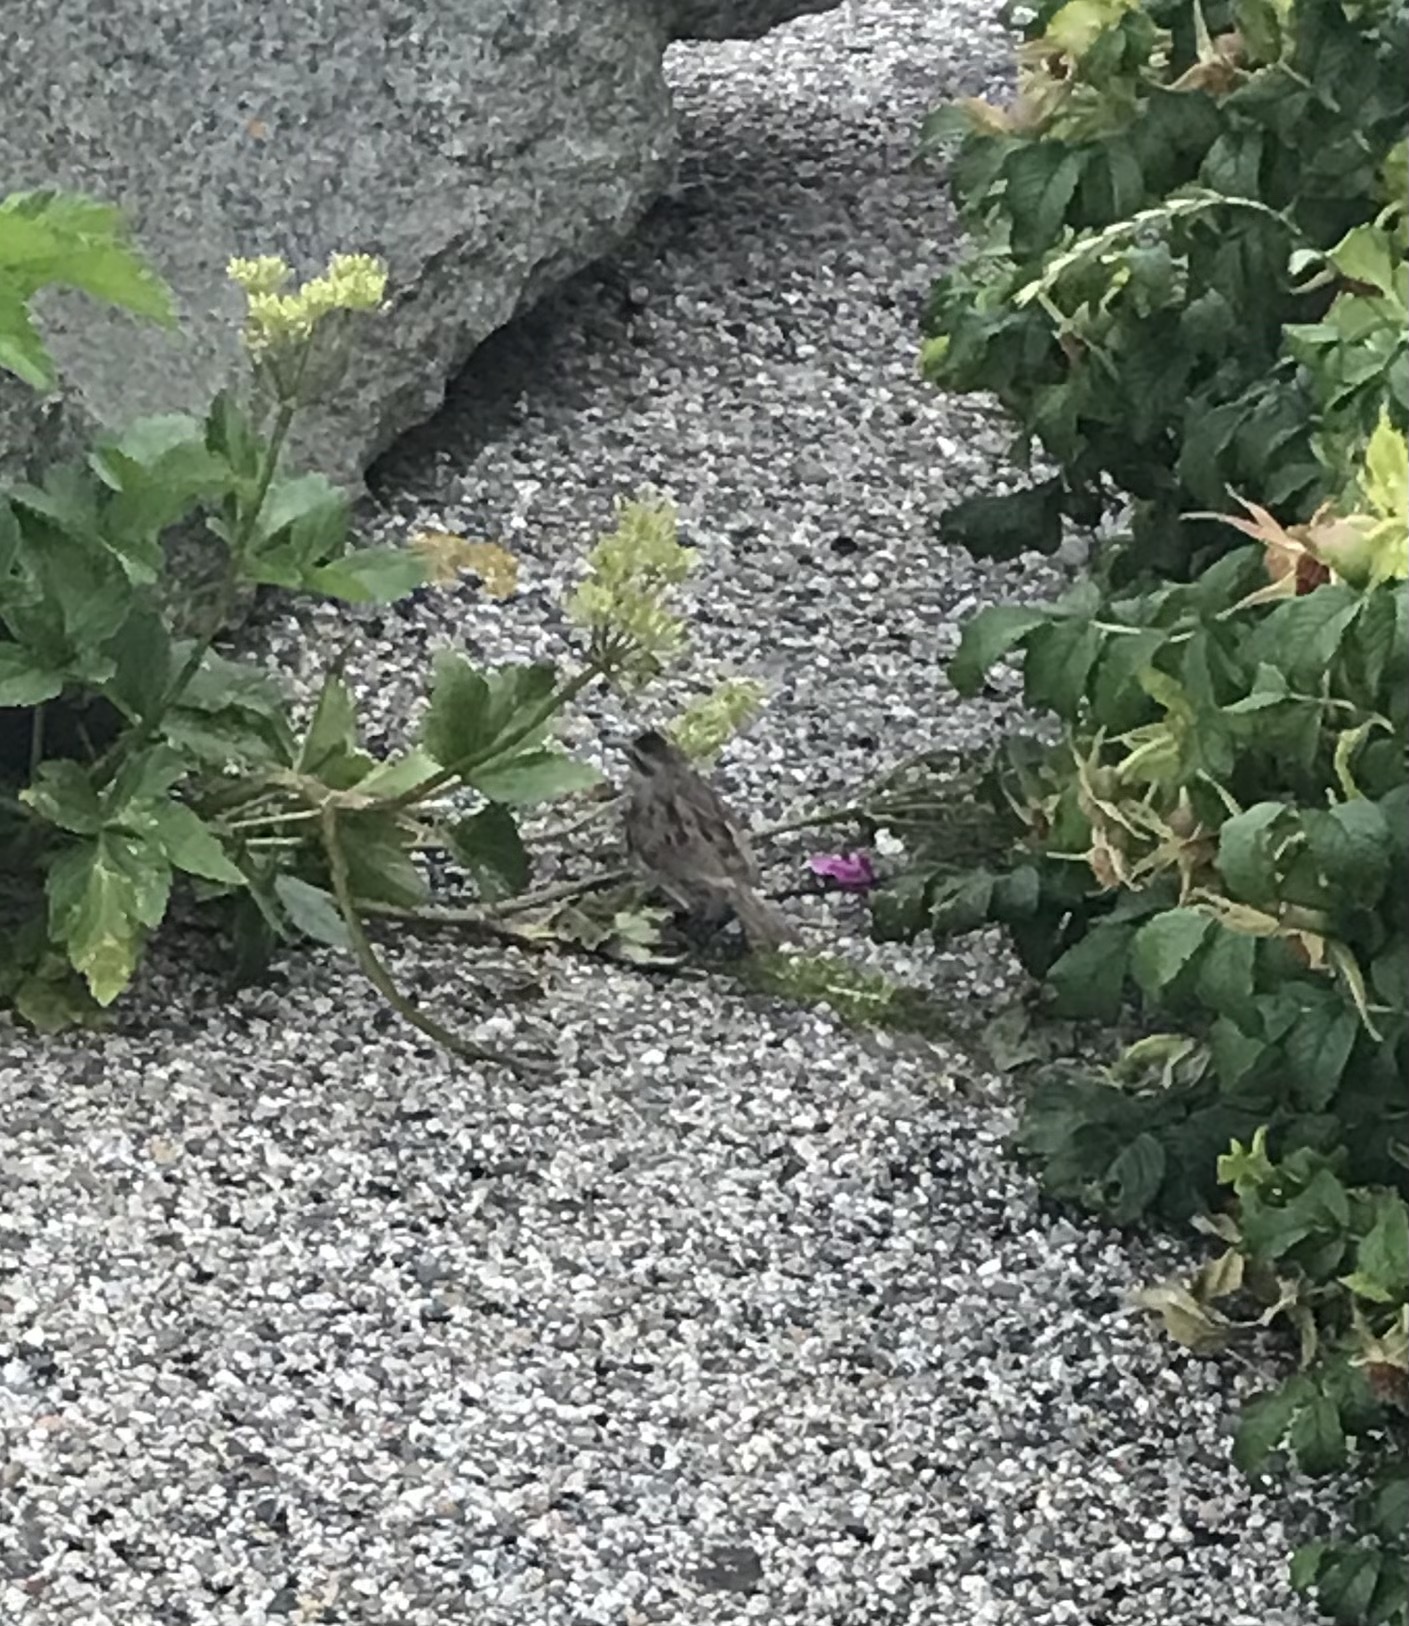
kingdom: Animalia
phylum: Chordata
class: Aves
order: Passeriformes
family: Passerellidae
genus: Melospiza
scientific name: Melospiza melodia
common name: Song sparrow
